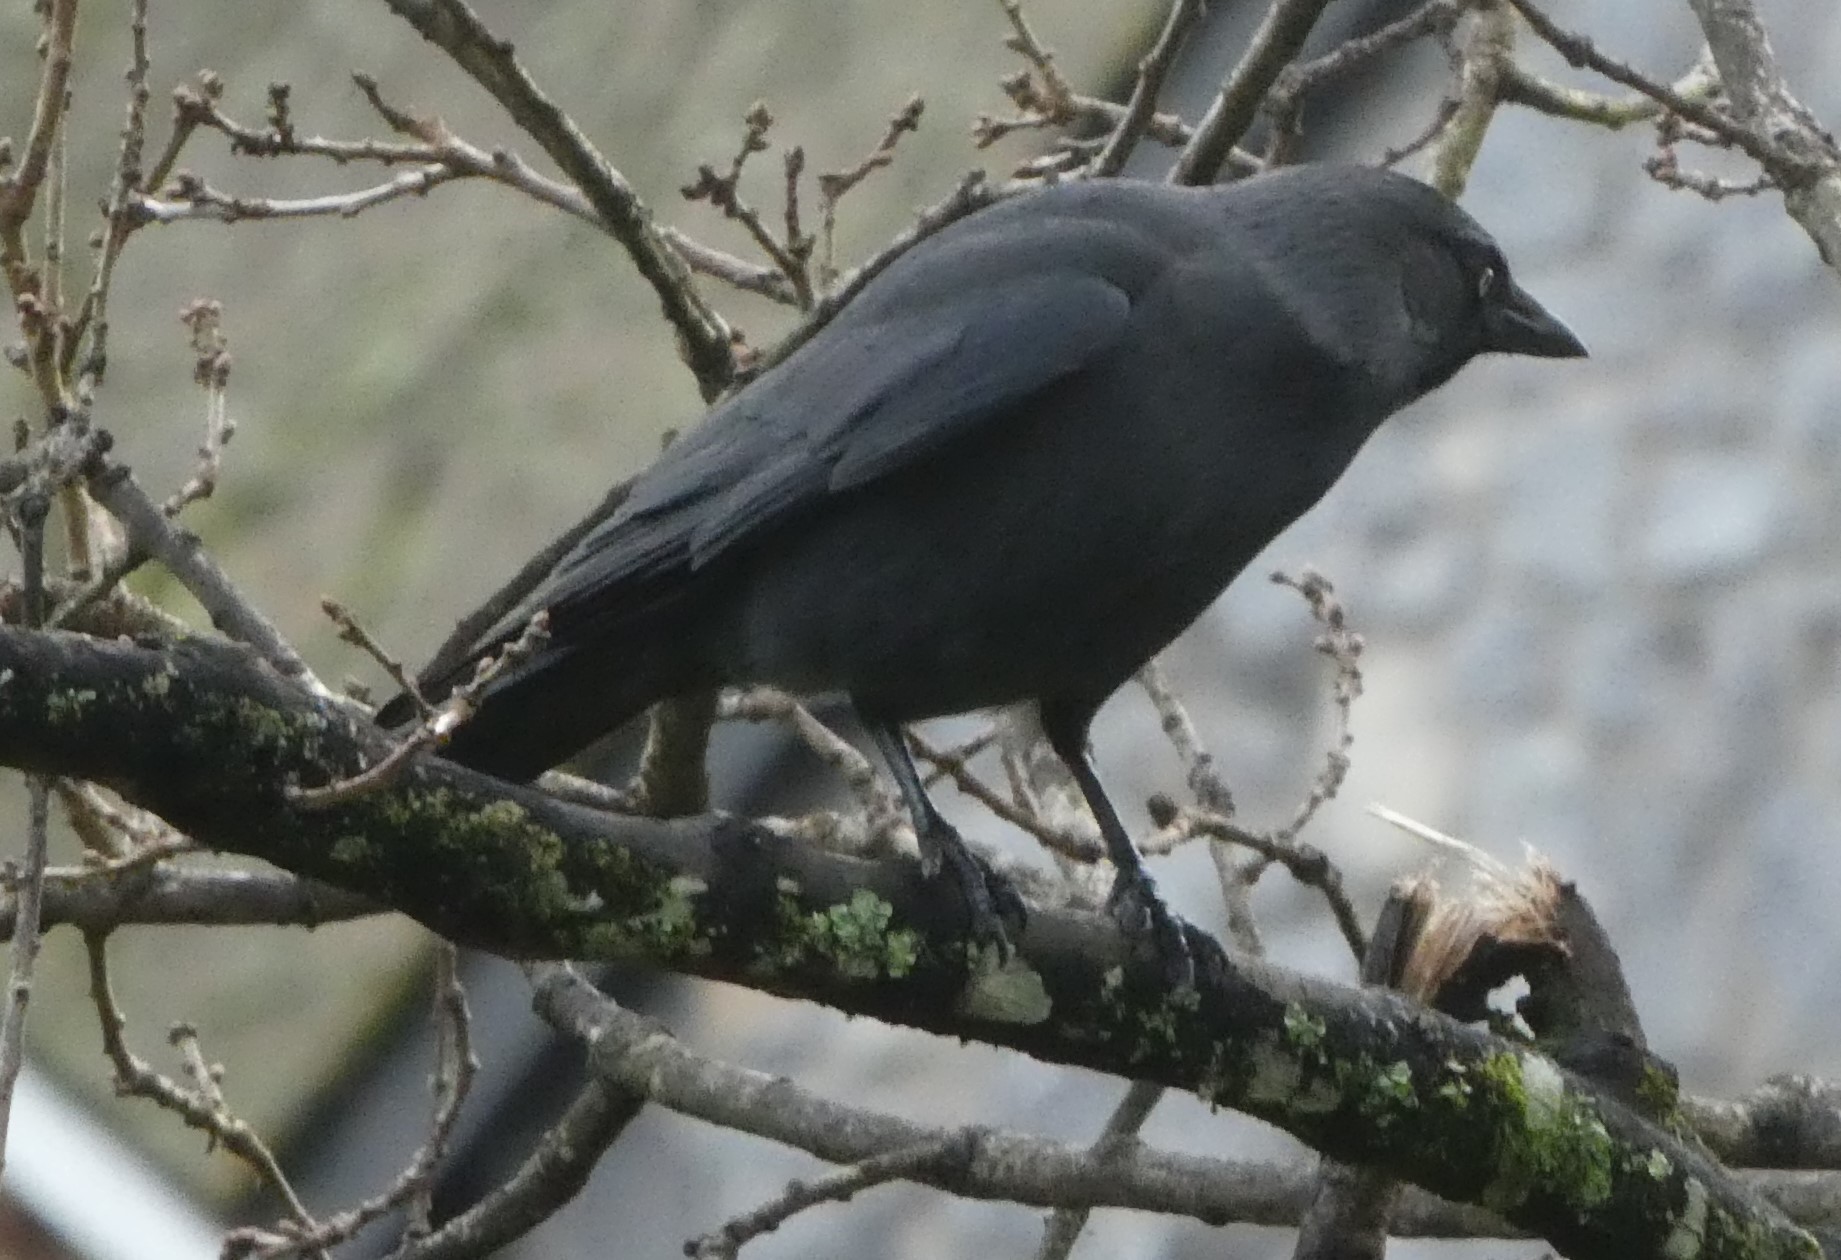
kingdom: Animalia
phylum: Chordata
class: Aves
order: Passeriformes
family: Corvidae
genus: Coloeus
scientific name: Coloeus monedula
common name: Western jackdaw
